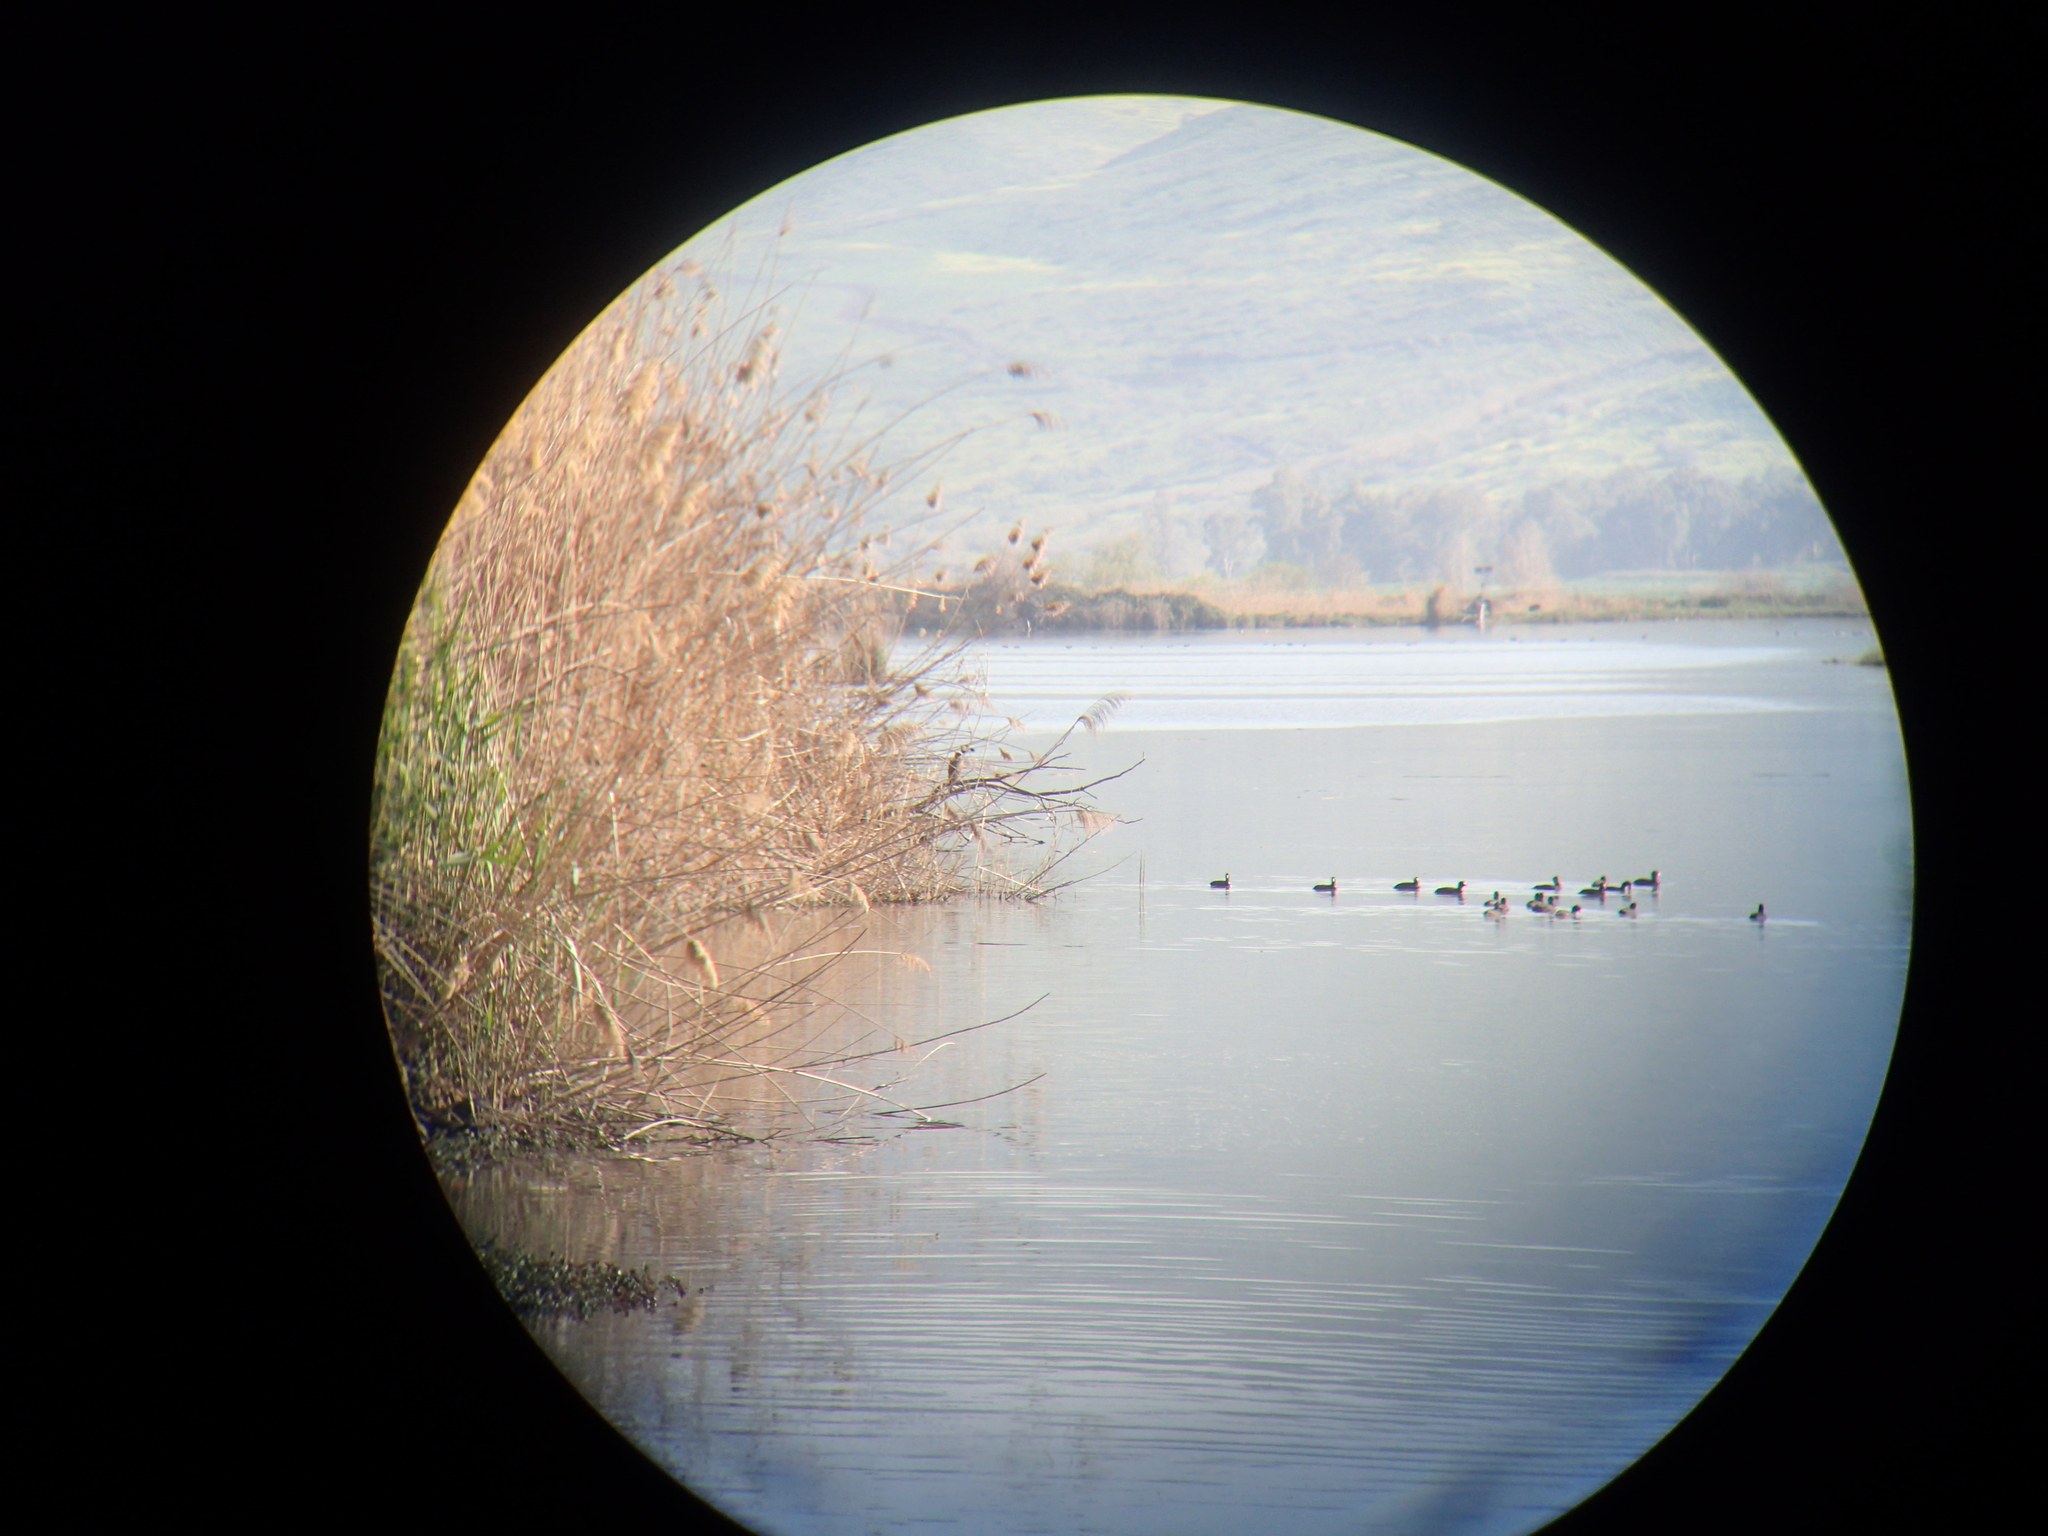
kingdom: Animalia
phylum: Chordata
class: Aves
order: Gruiformes
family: Rallidae
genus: Fulica
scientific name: Fulica atra
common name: Eurasian coot
